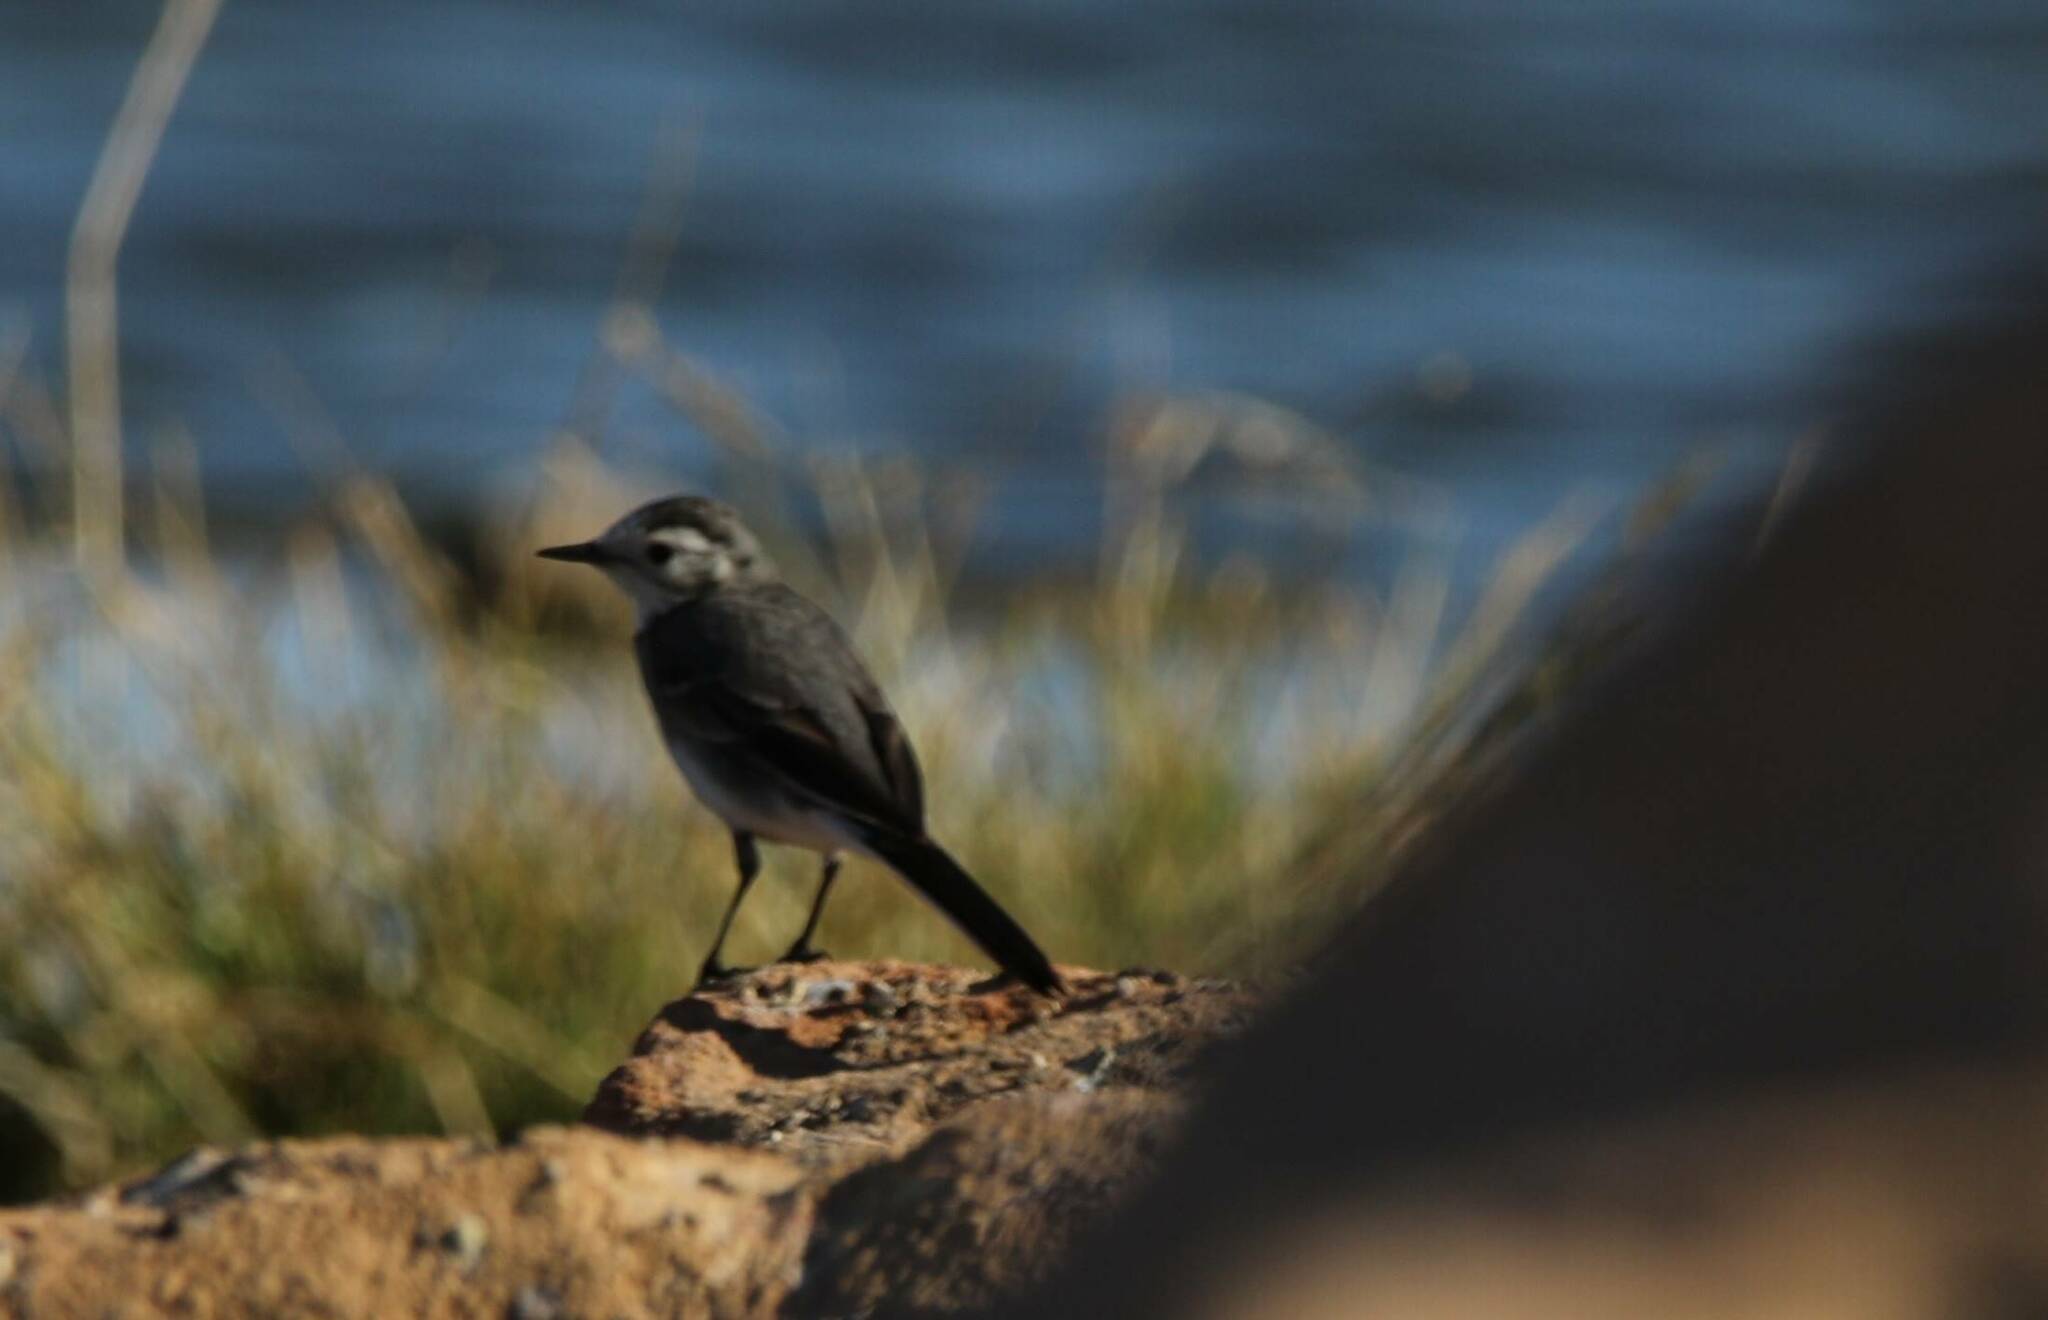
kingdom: Animalia
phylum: Chordata
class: Aves
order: Passeriformes
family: Motacillidae
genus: Motacilla
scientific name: Motacilla alba
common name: White wagtail
